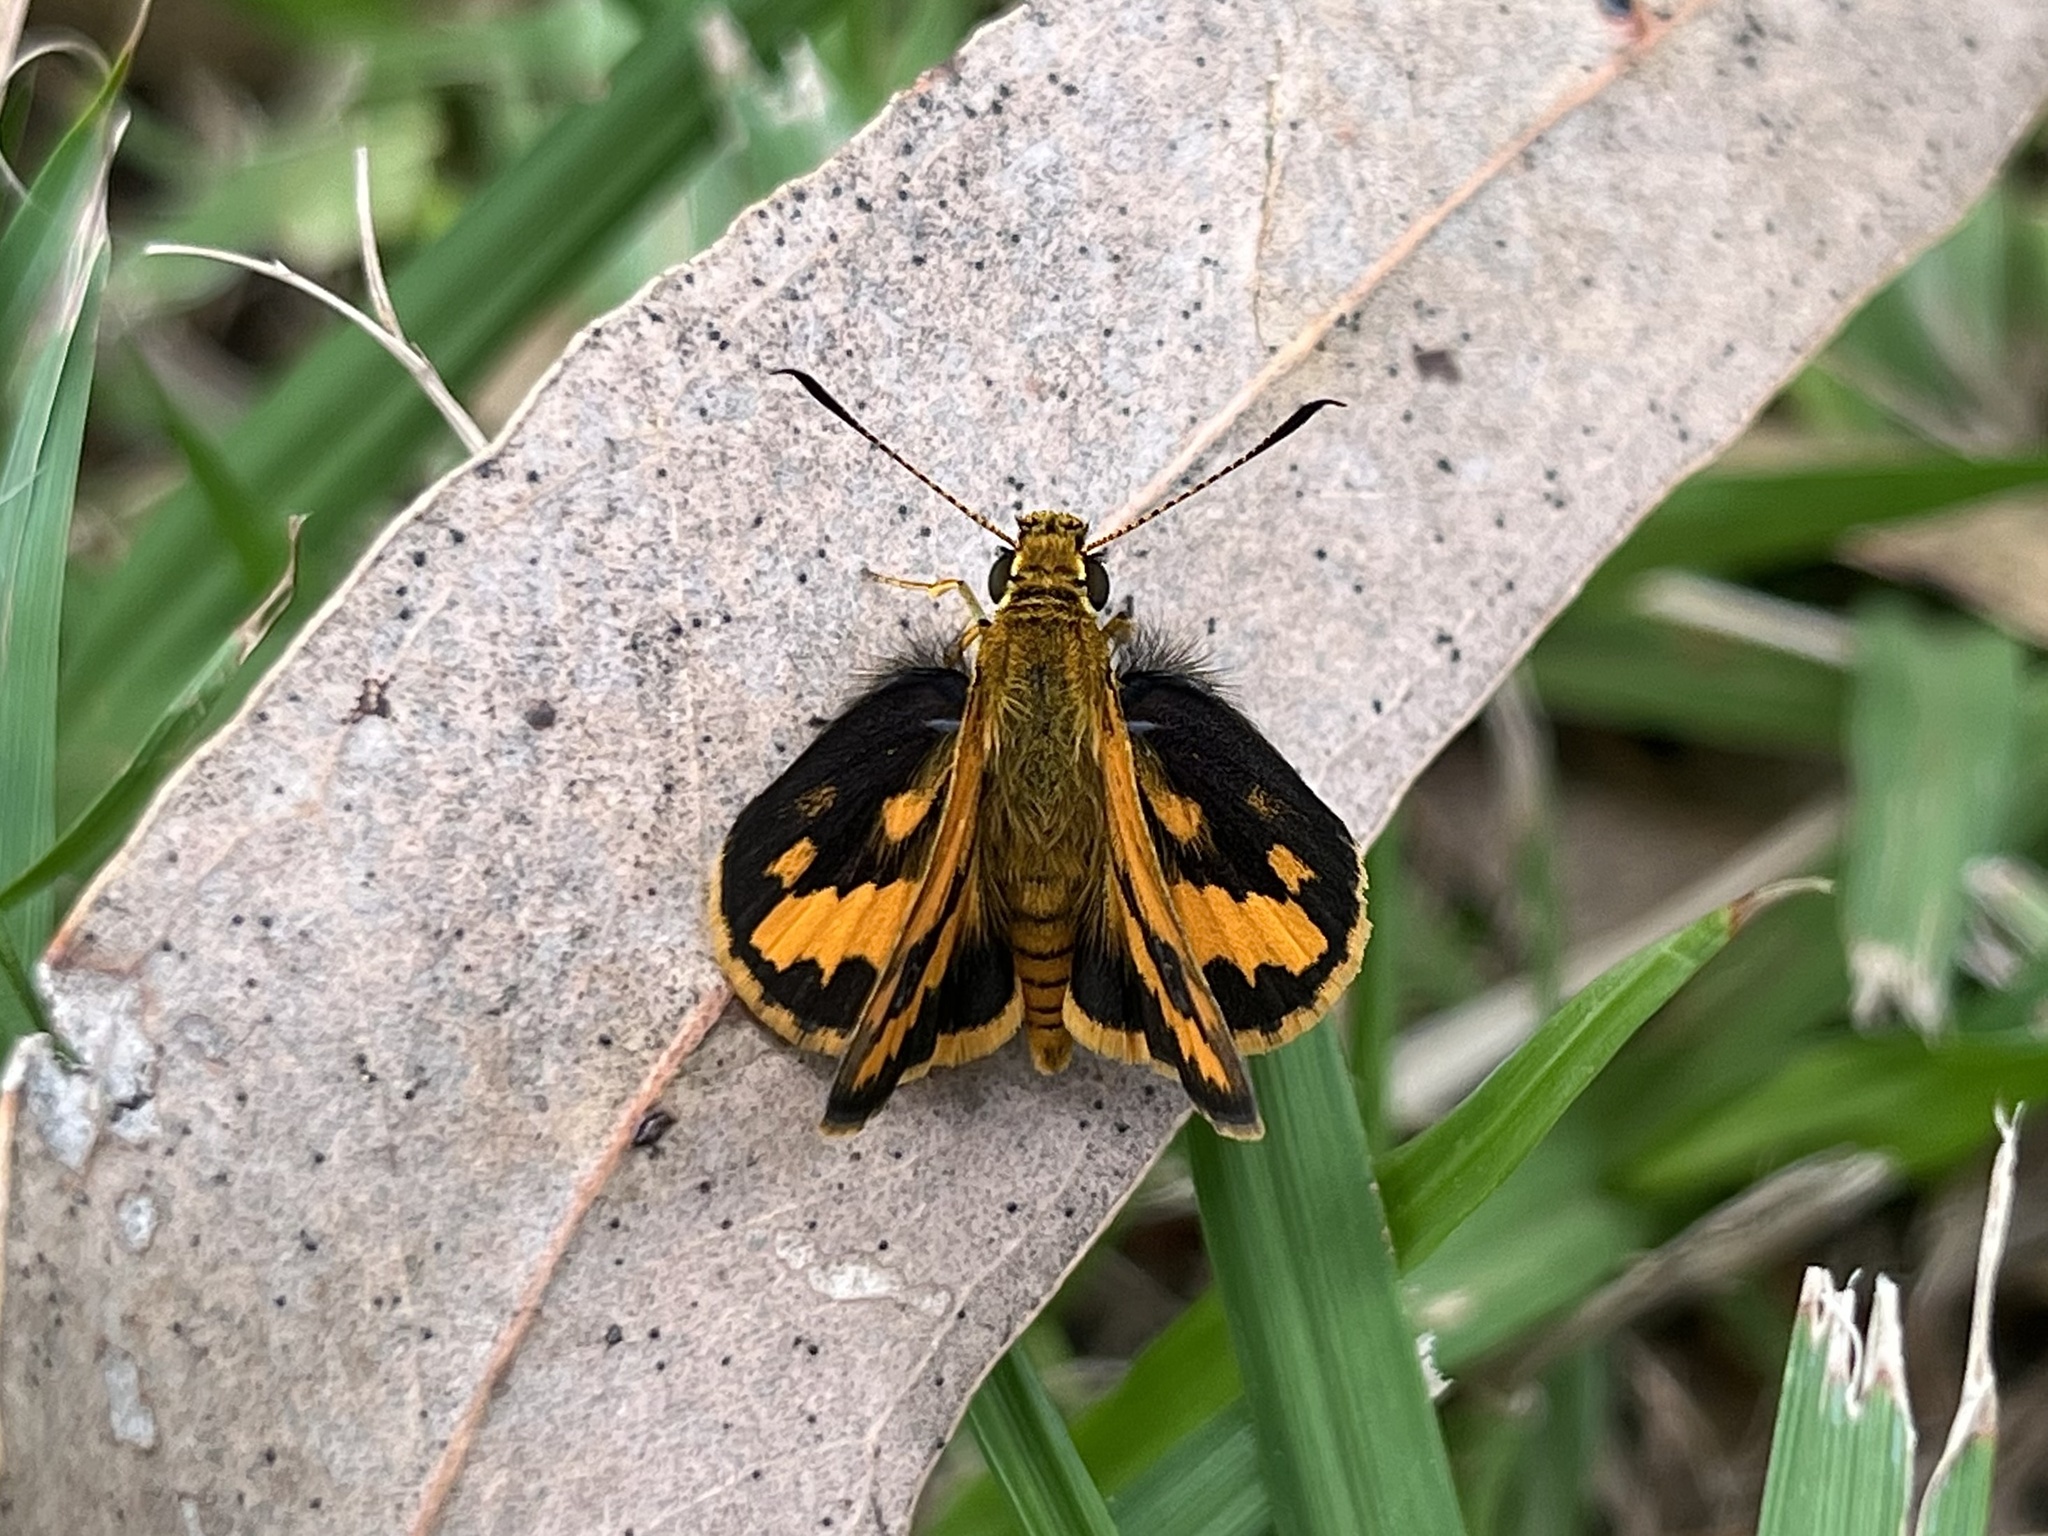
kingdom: Animalia
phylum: Arthropoda
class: Insecta
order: Lepidoptera
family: Hesperiidae
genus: Suniana
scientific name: Suniana sunias
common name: Wide-brand grass-dart
